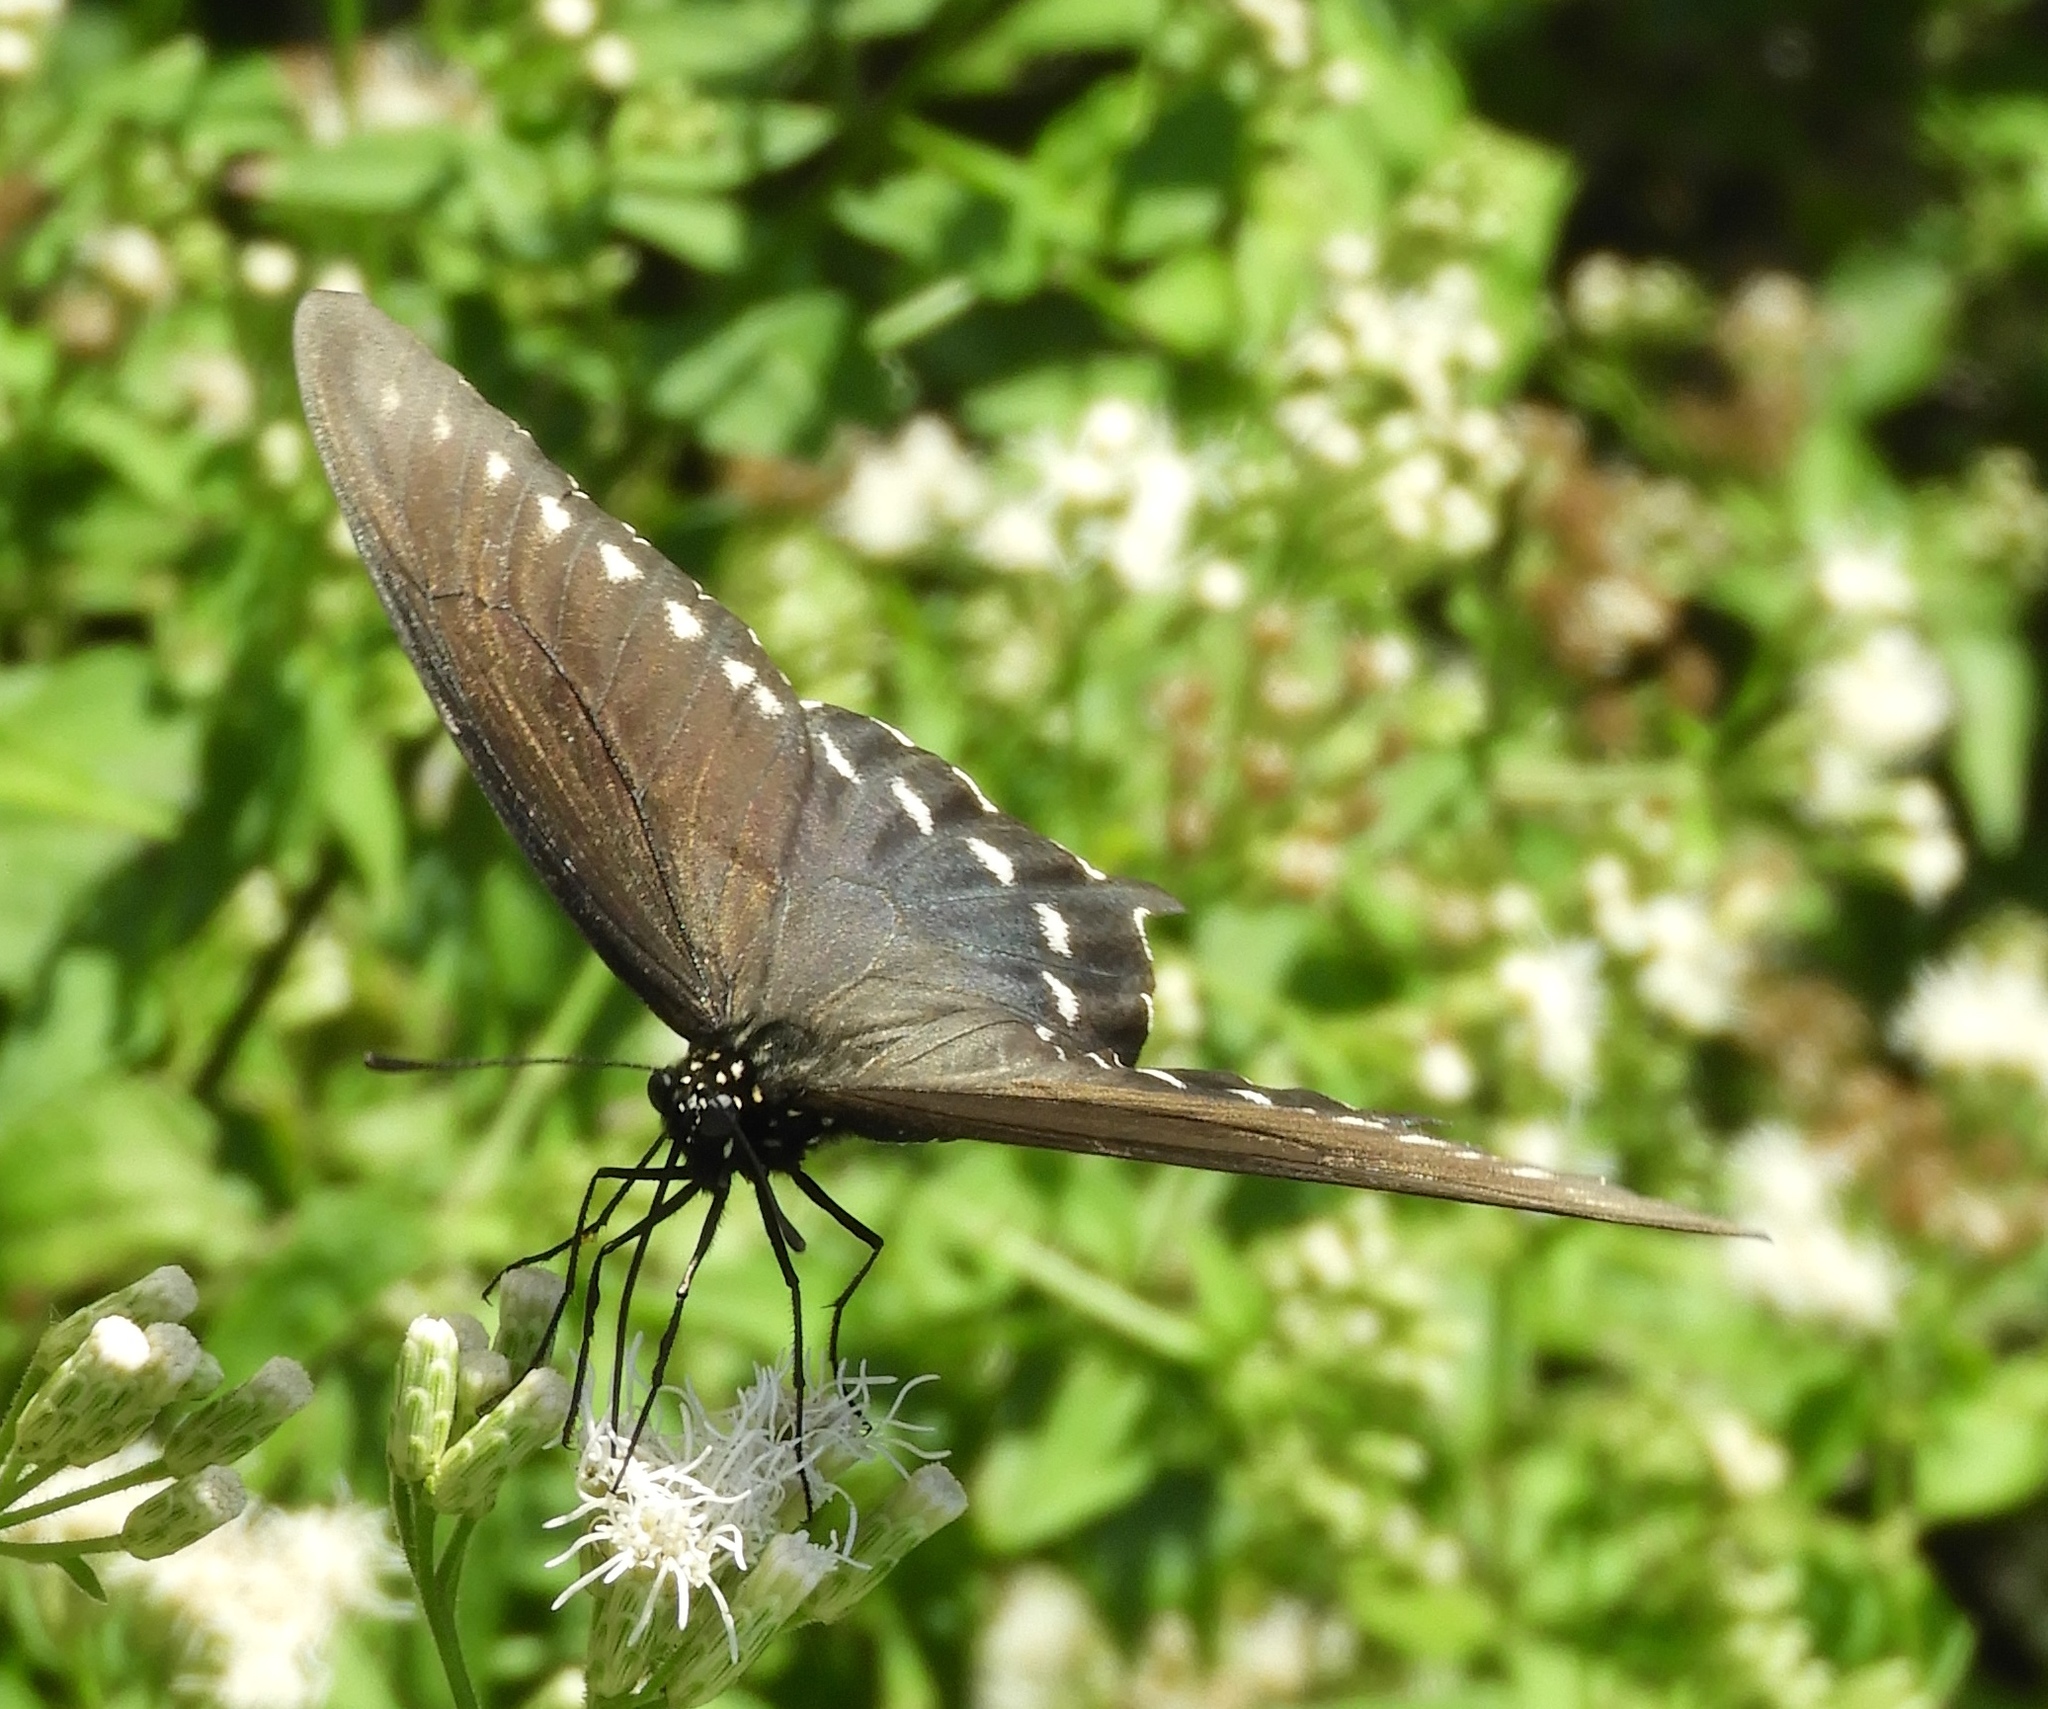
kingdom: Animalia
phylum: Arthropoda
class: Insecta
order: Lepidoptera
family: Papilionidae
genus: Battus
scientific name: Battus philenor
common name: Pipevine swallowtail
